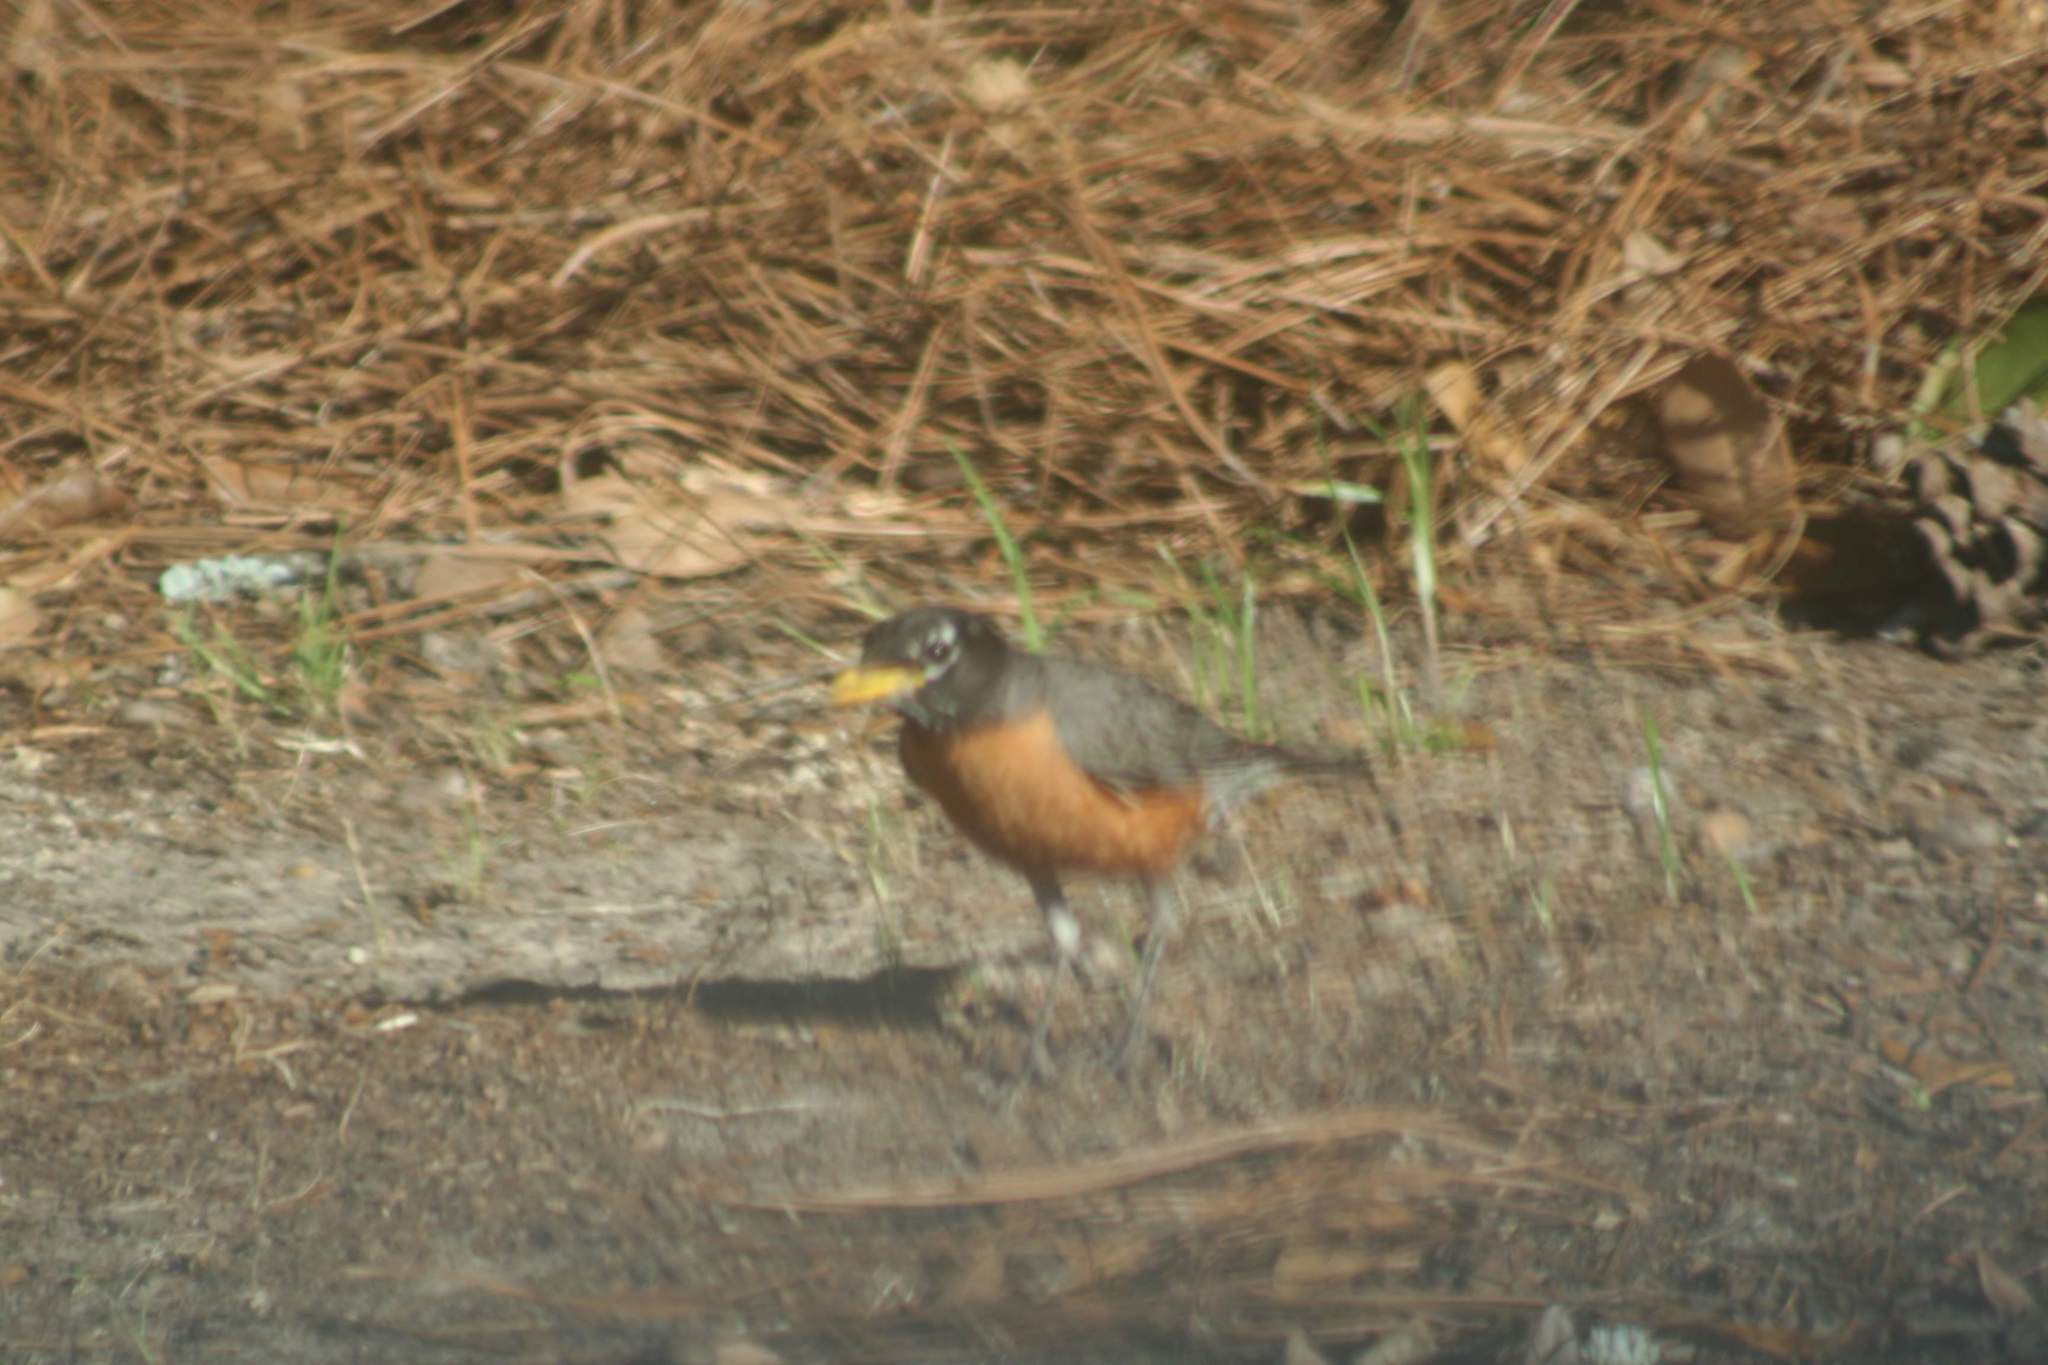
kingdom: Animalia
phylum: Chordata
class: Aves
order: Passeriformes
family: Turdidae
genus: Turdus
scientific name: Turdus migratorius
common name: American robin
